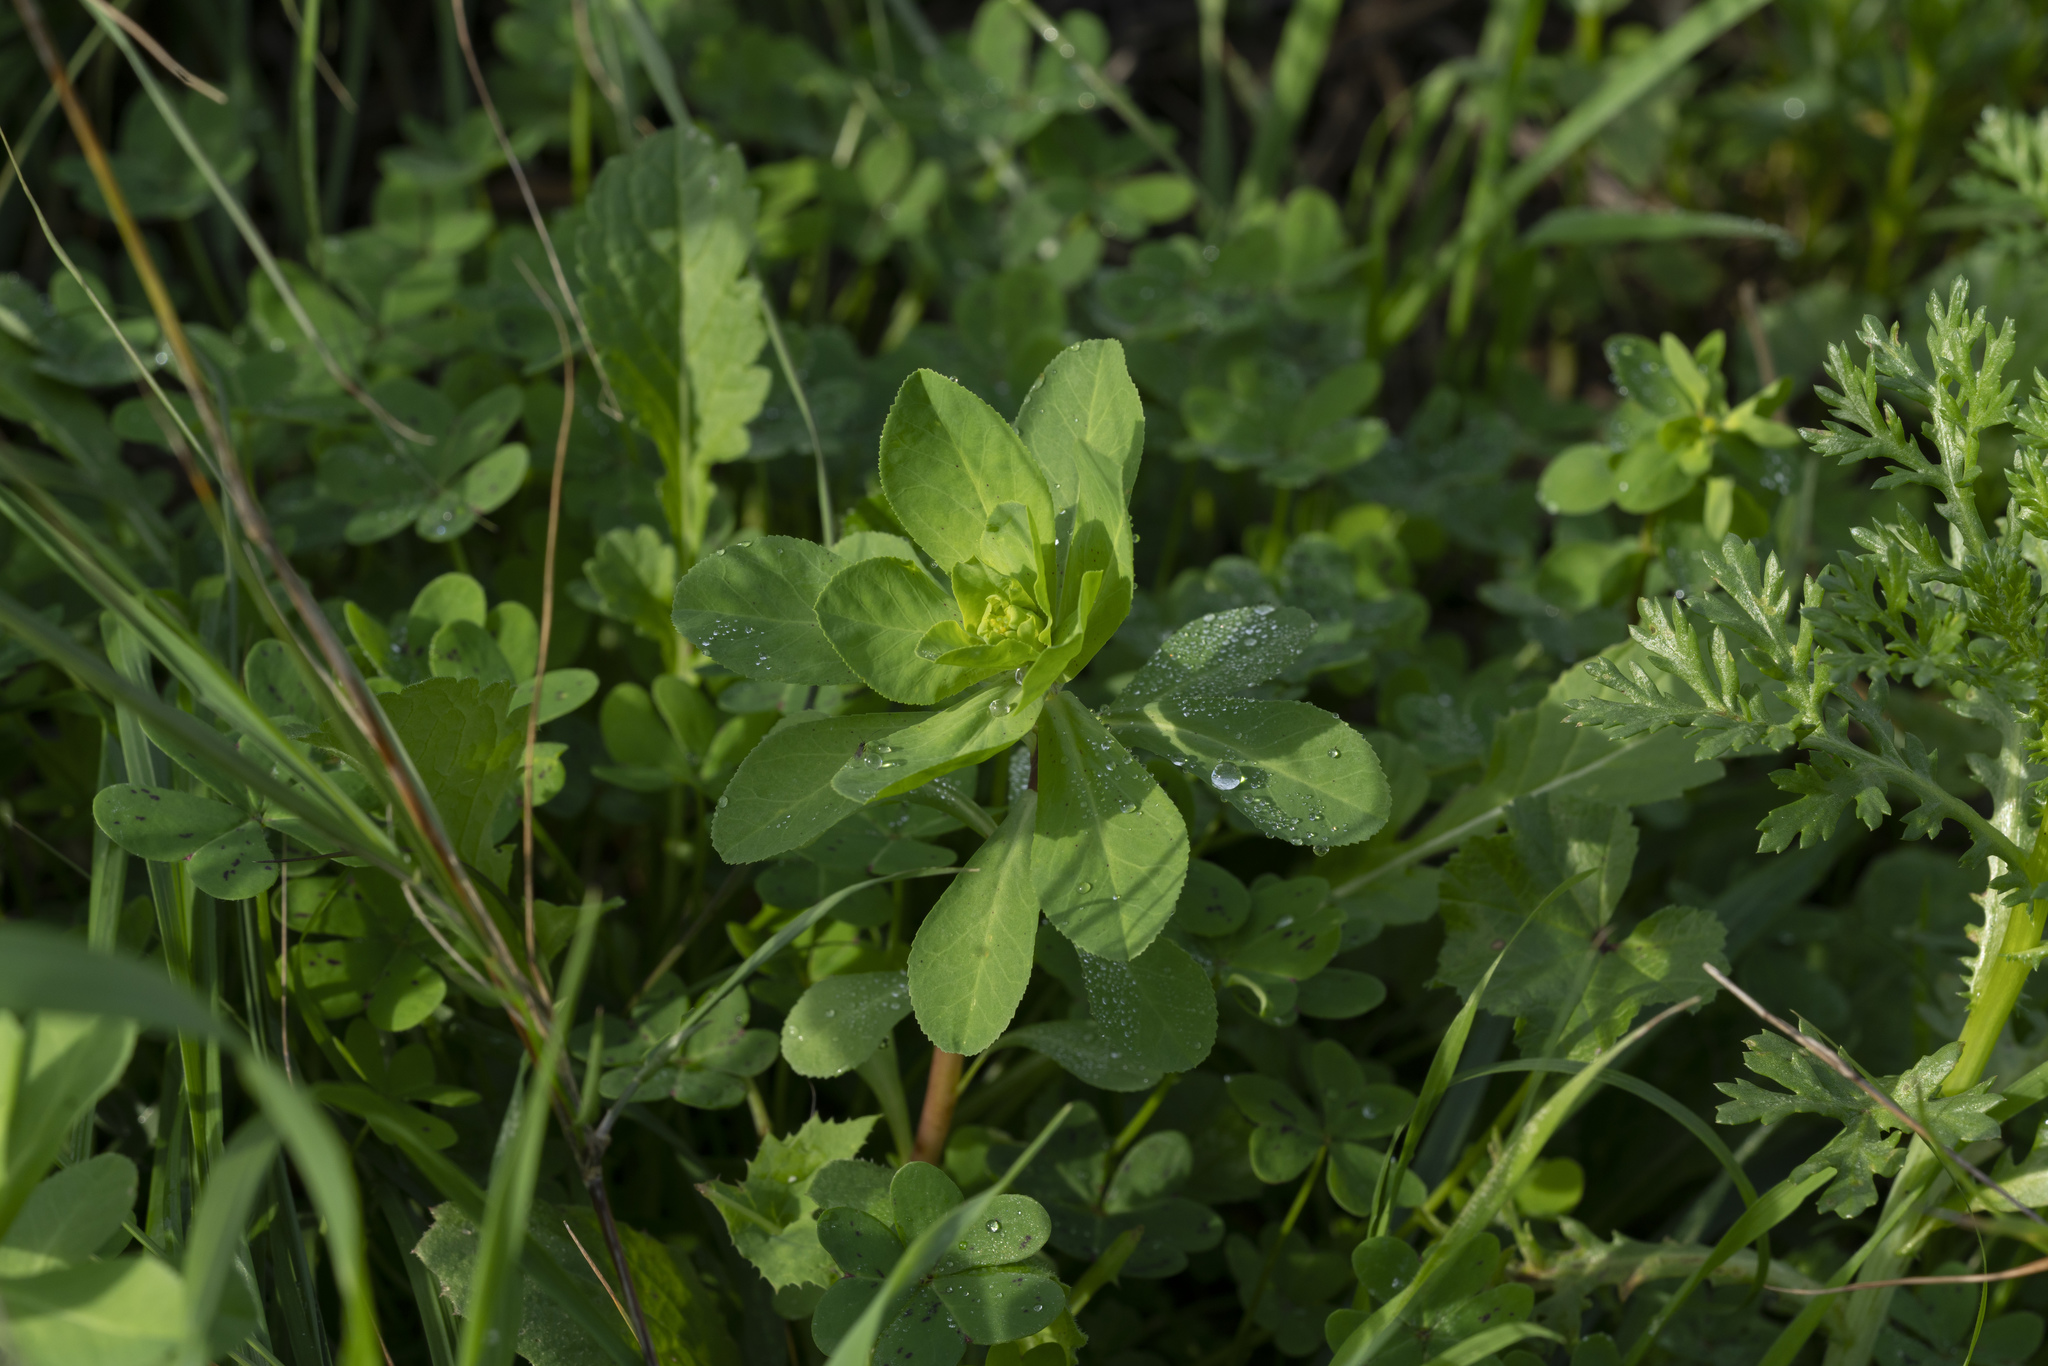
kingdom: Plantae
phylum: Tracheophyta
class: Magnoliopsida
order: Malpighiales
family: Euphorbiaceae
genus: Euphorbia
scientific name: Euphorbia helioscopia
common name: Sun spurge
